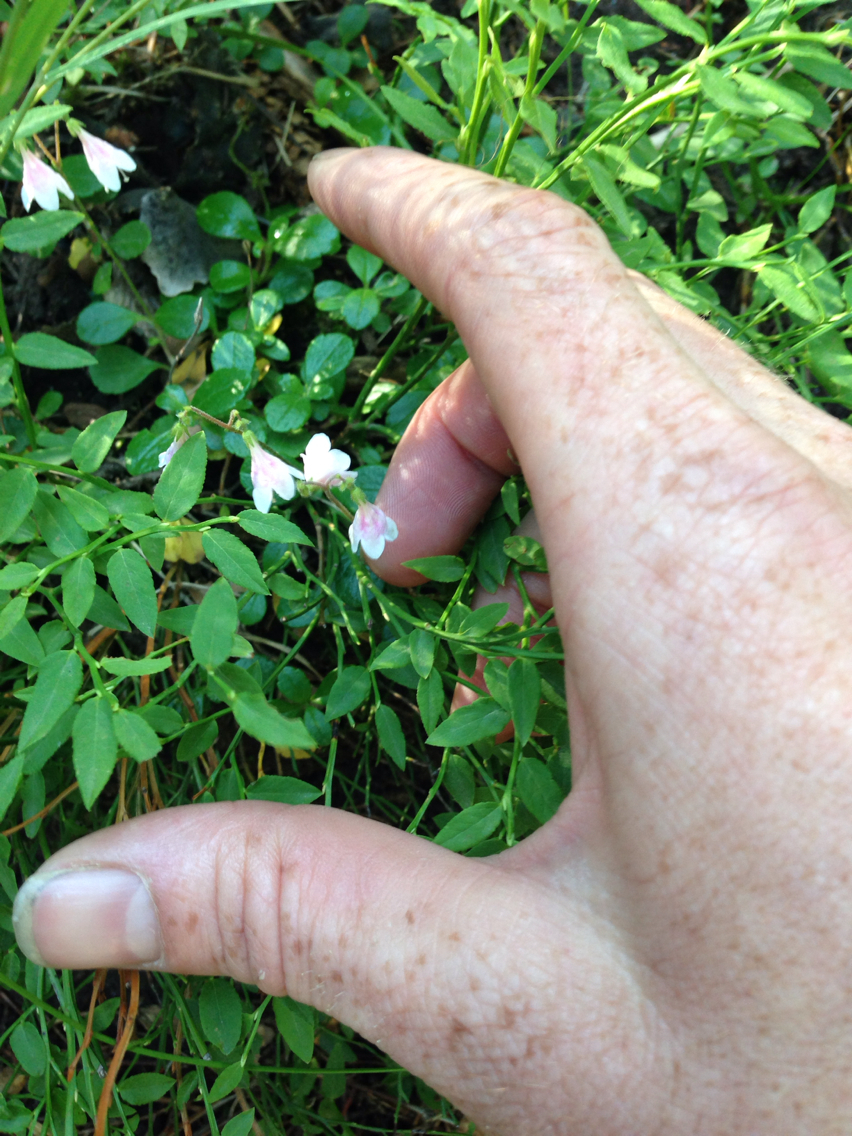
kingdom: Plantae
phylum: Tracheophyta
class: Magnoliopsida
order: Dipsacales
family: Caprifoliaceae
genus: Linnaea
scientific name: Linnaea borealis
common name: Twinflower
